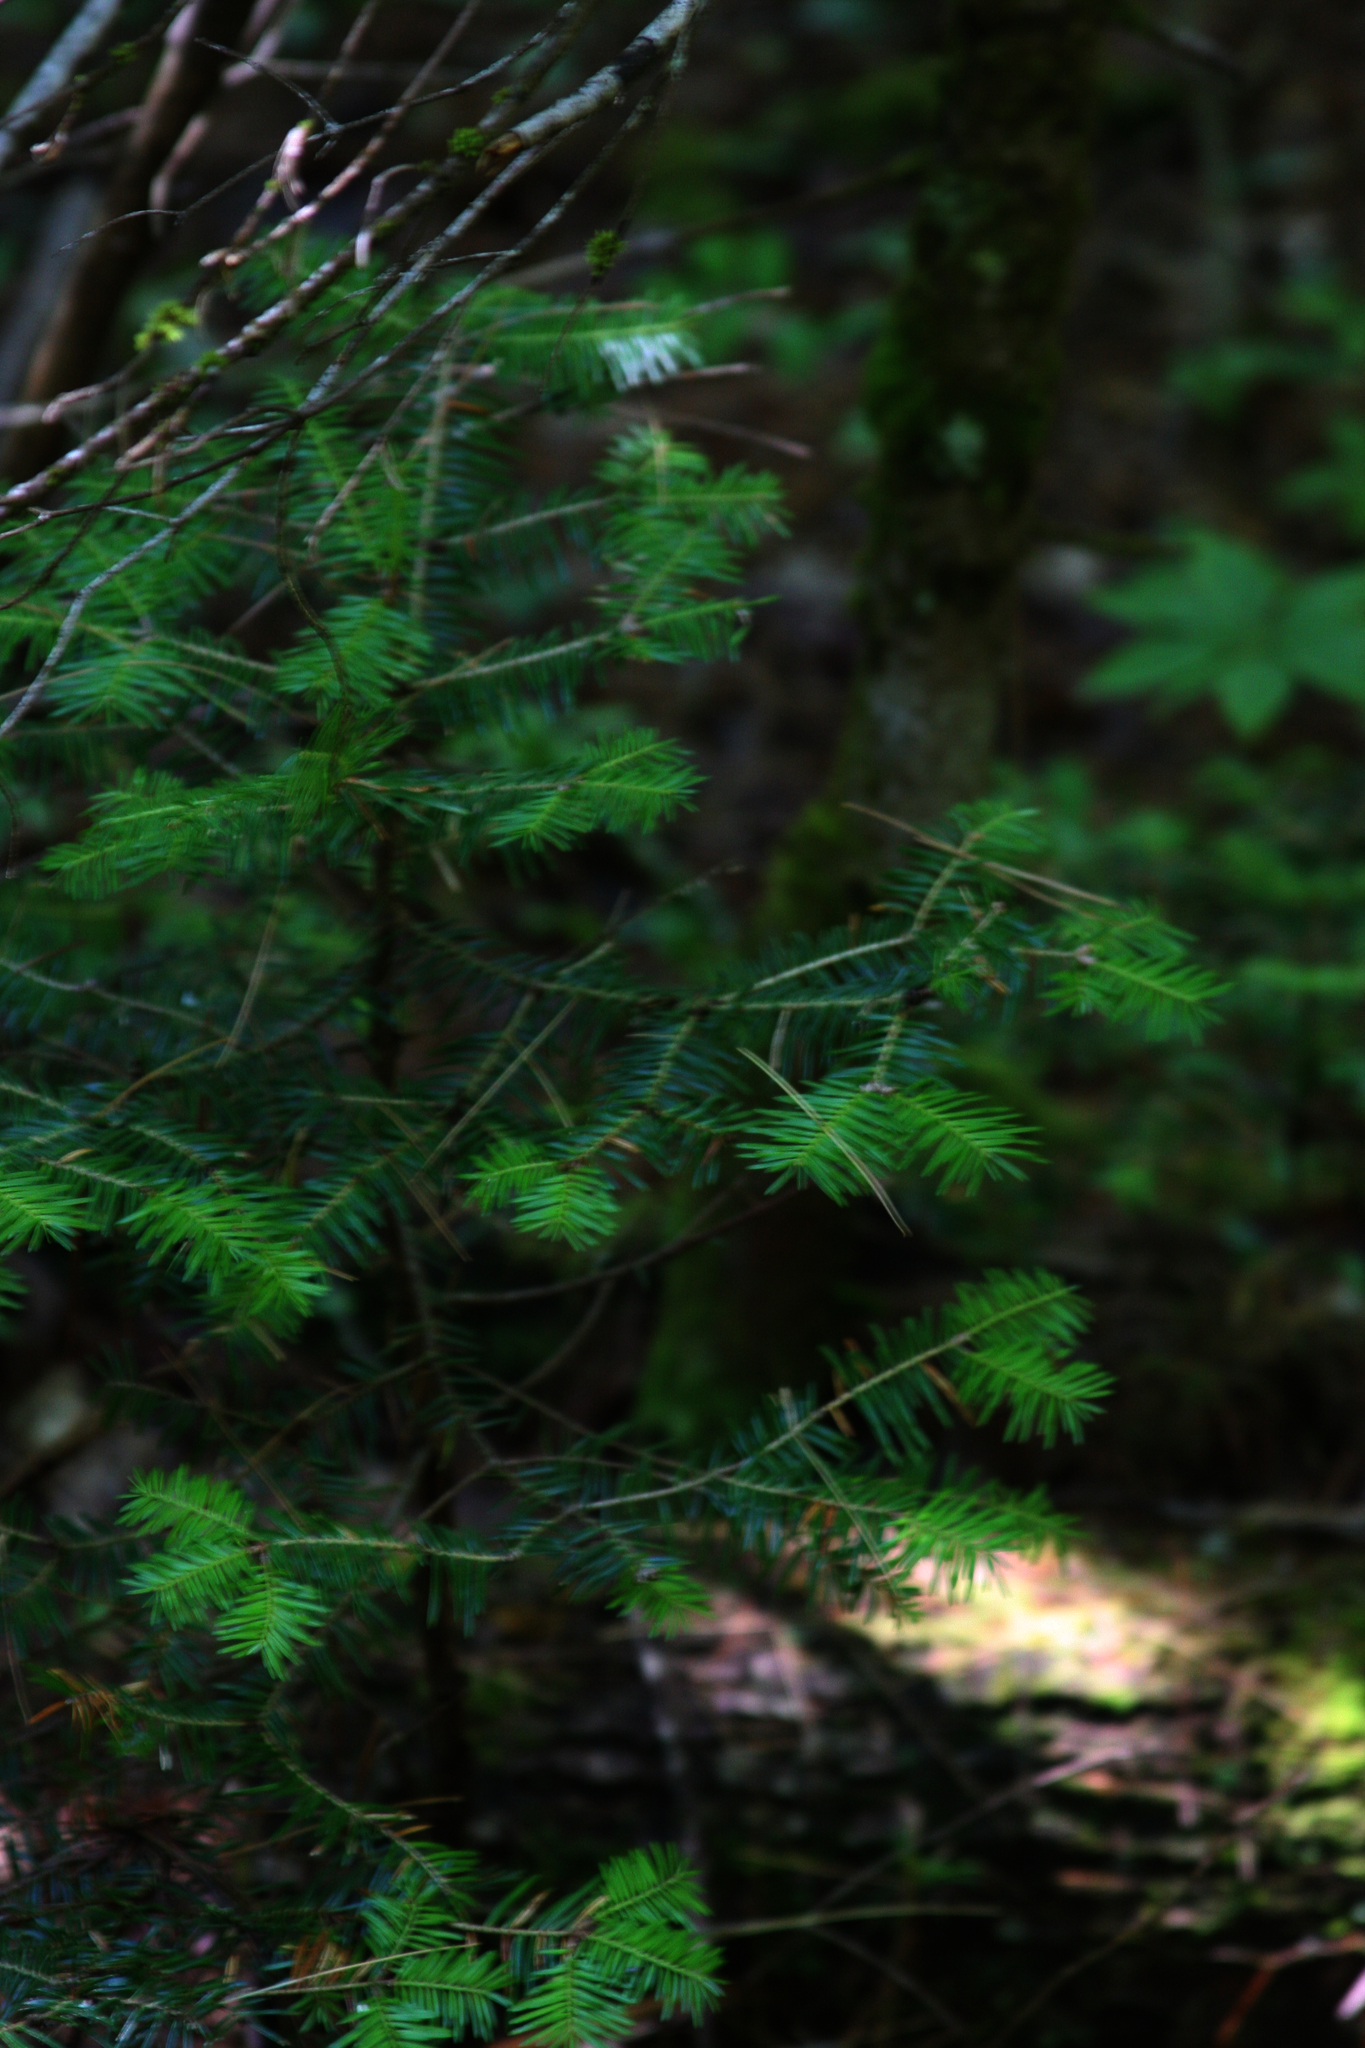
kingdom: Plantae
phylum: Tracheophyta
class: Pinopsida
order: Pinales
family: Pinaceae
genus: Abies
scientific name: Abies balsamea
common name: Balsam fir
